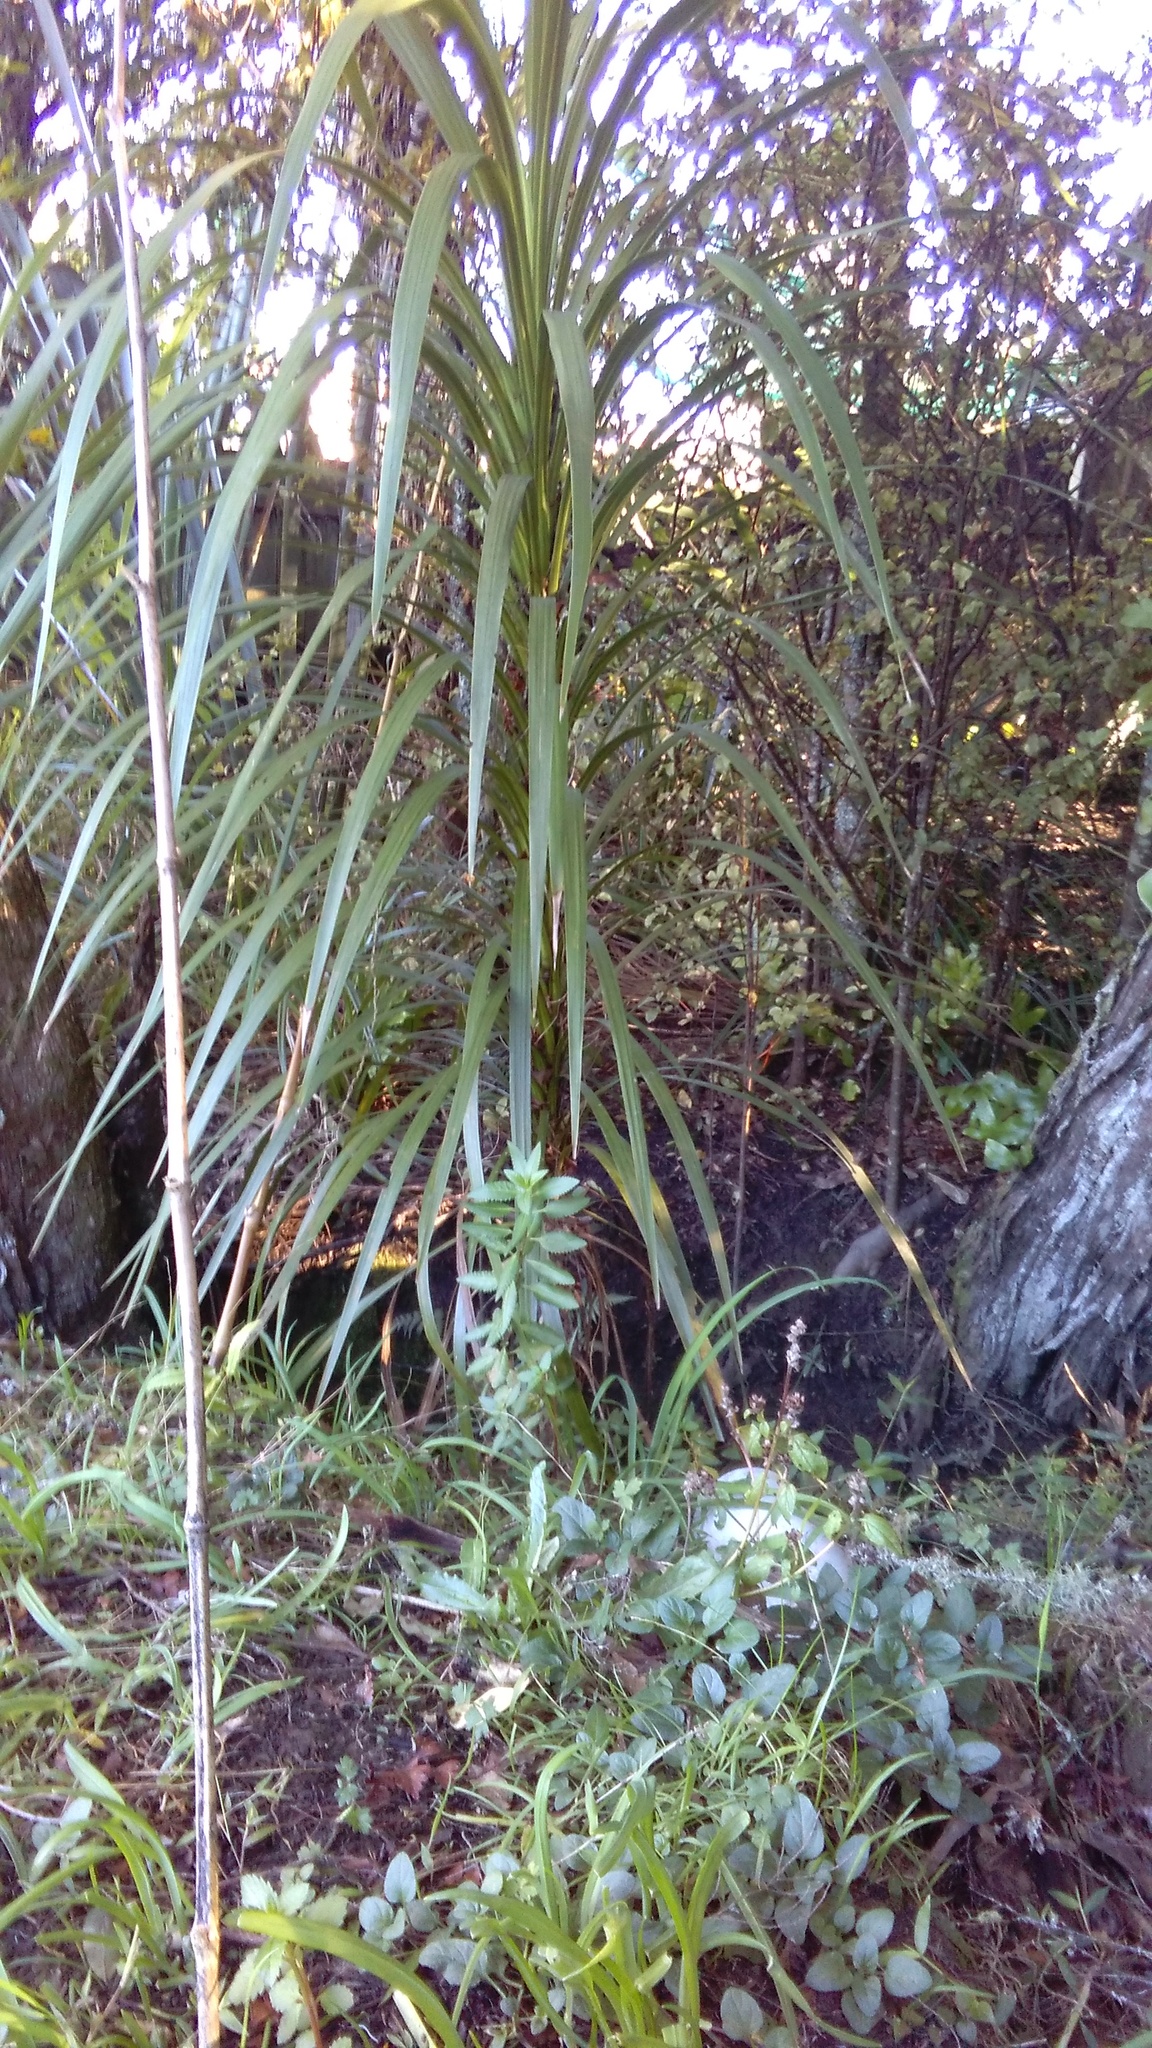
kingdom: Plantae
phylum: Tracheophyta
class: Magnoliopsida
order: Saxifragales
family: Haloragaceae
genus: Haloragis
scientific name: Haloragis erecta
